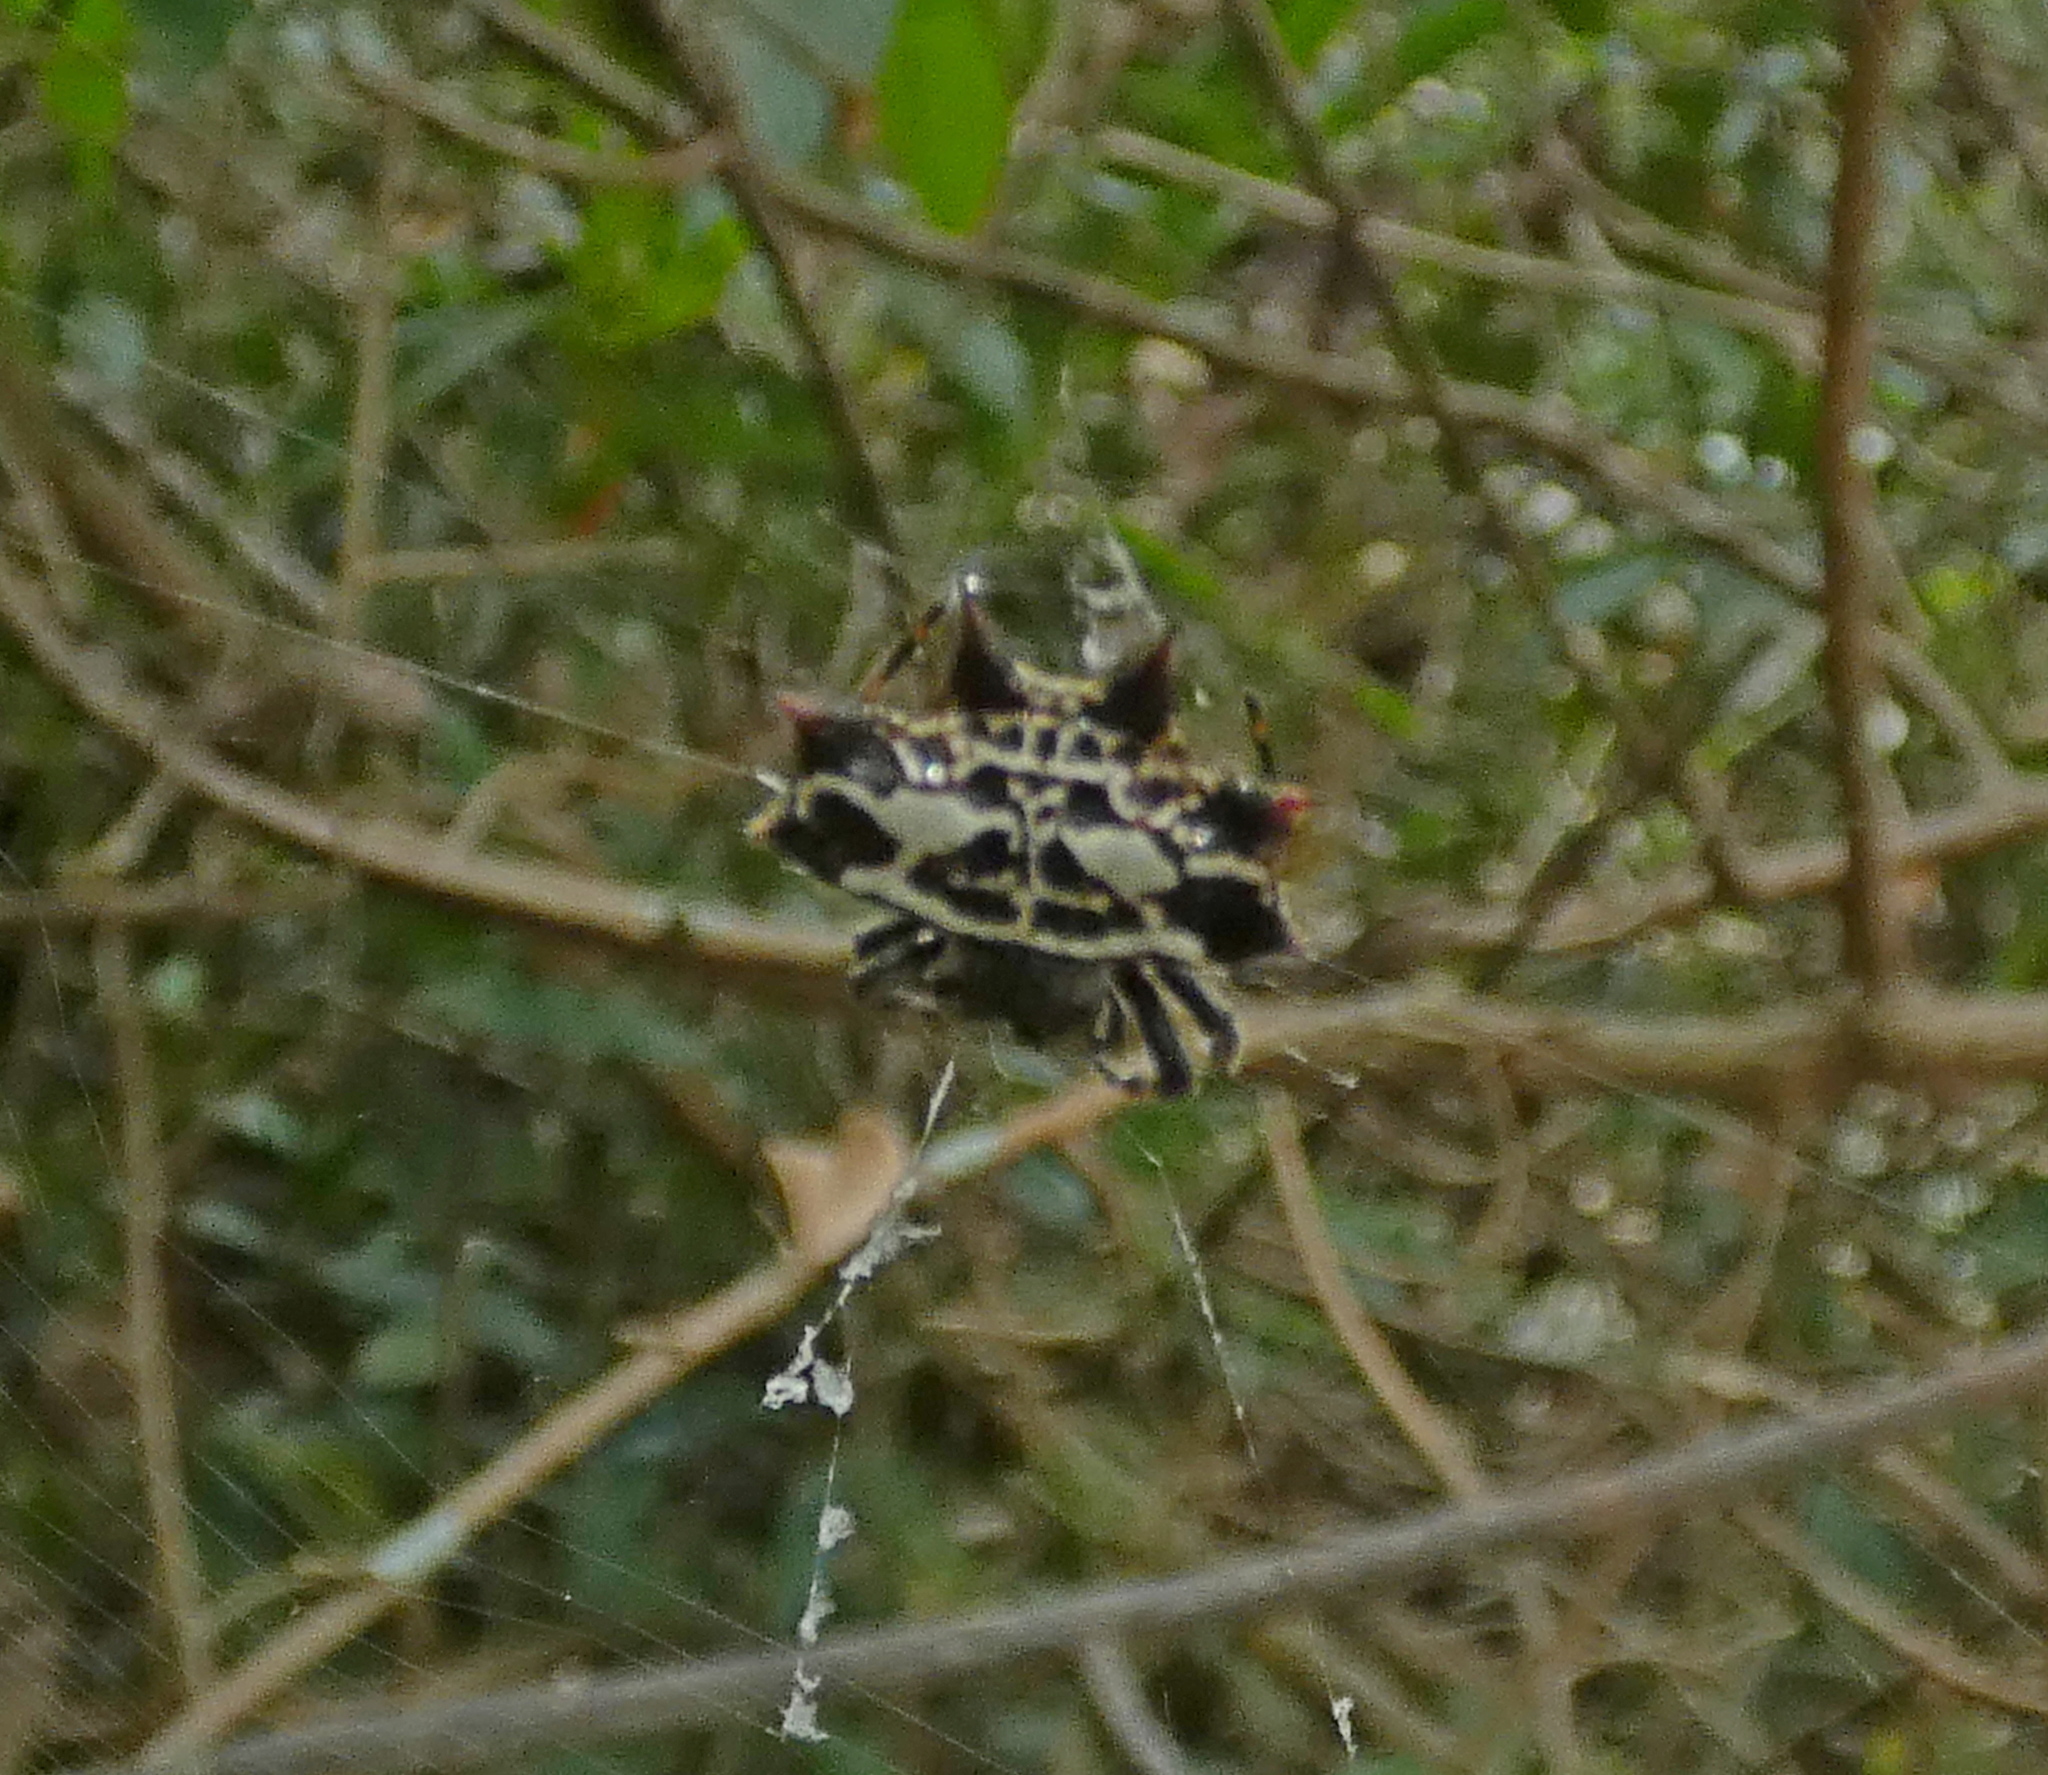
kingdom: Animalia
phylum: Arthropoda
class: Arachnida
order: Araneae
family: Araneidae
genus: Gasteracantha
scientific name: Gasteracantha cancriformis
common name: Orb weavers
